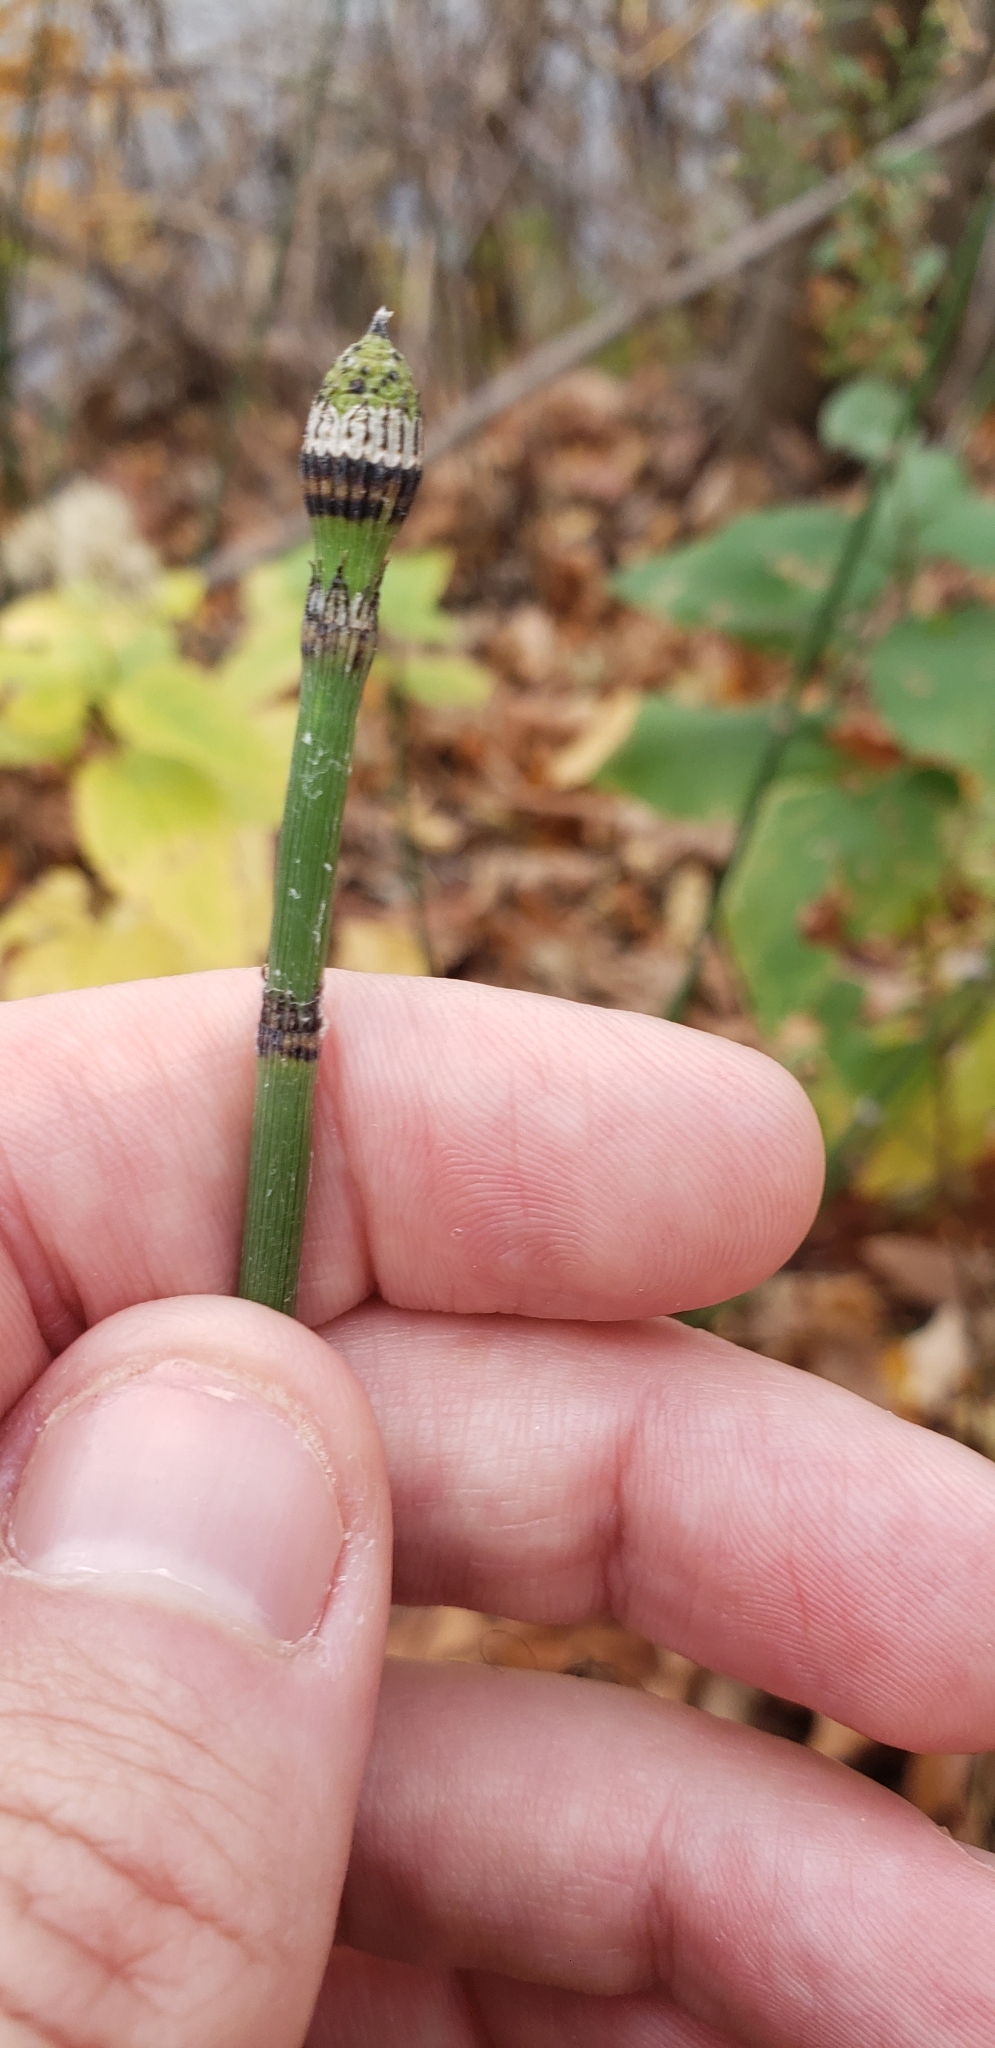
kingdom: Plantae
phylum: Tracheophyta
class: Polypodiopsida
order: Equisetales
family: Equisetaceae
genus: Equisetum
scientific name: Equisetum hyemale
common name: Rough horsetail
